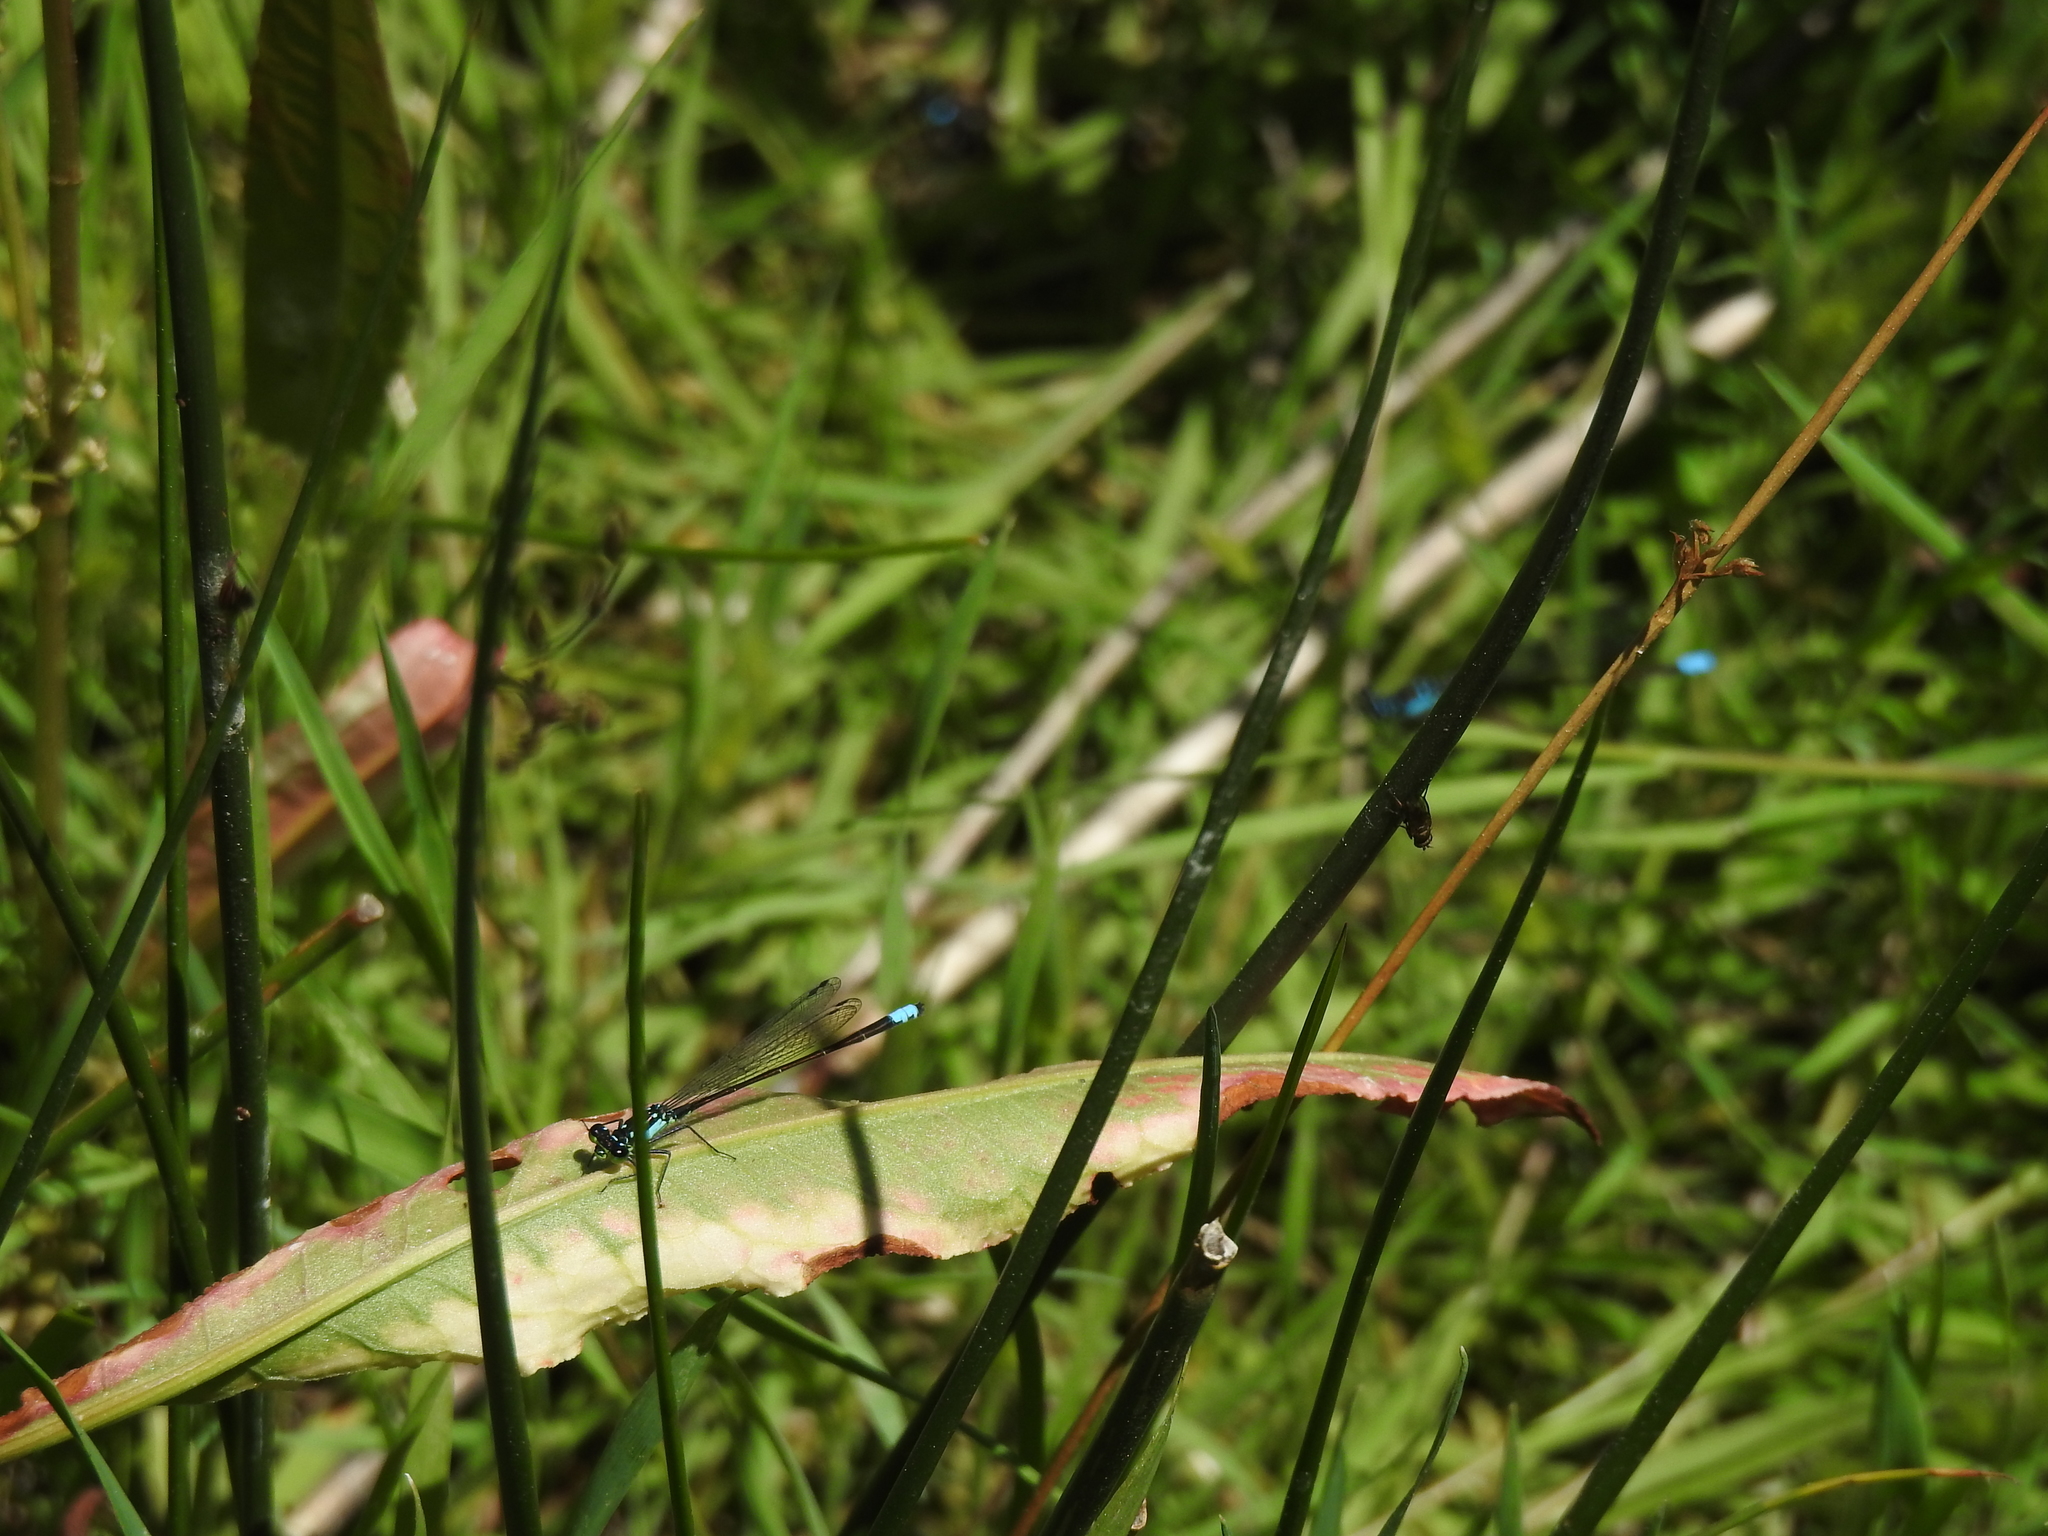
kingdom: Animalia
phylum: Arthropoda
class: Insecta
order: Odonata
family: Coenagrionidae
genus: Ischnura
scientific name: Ischnura cervula
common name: Pacific forktail
